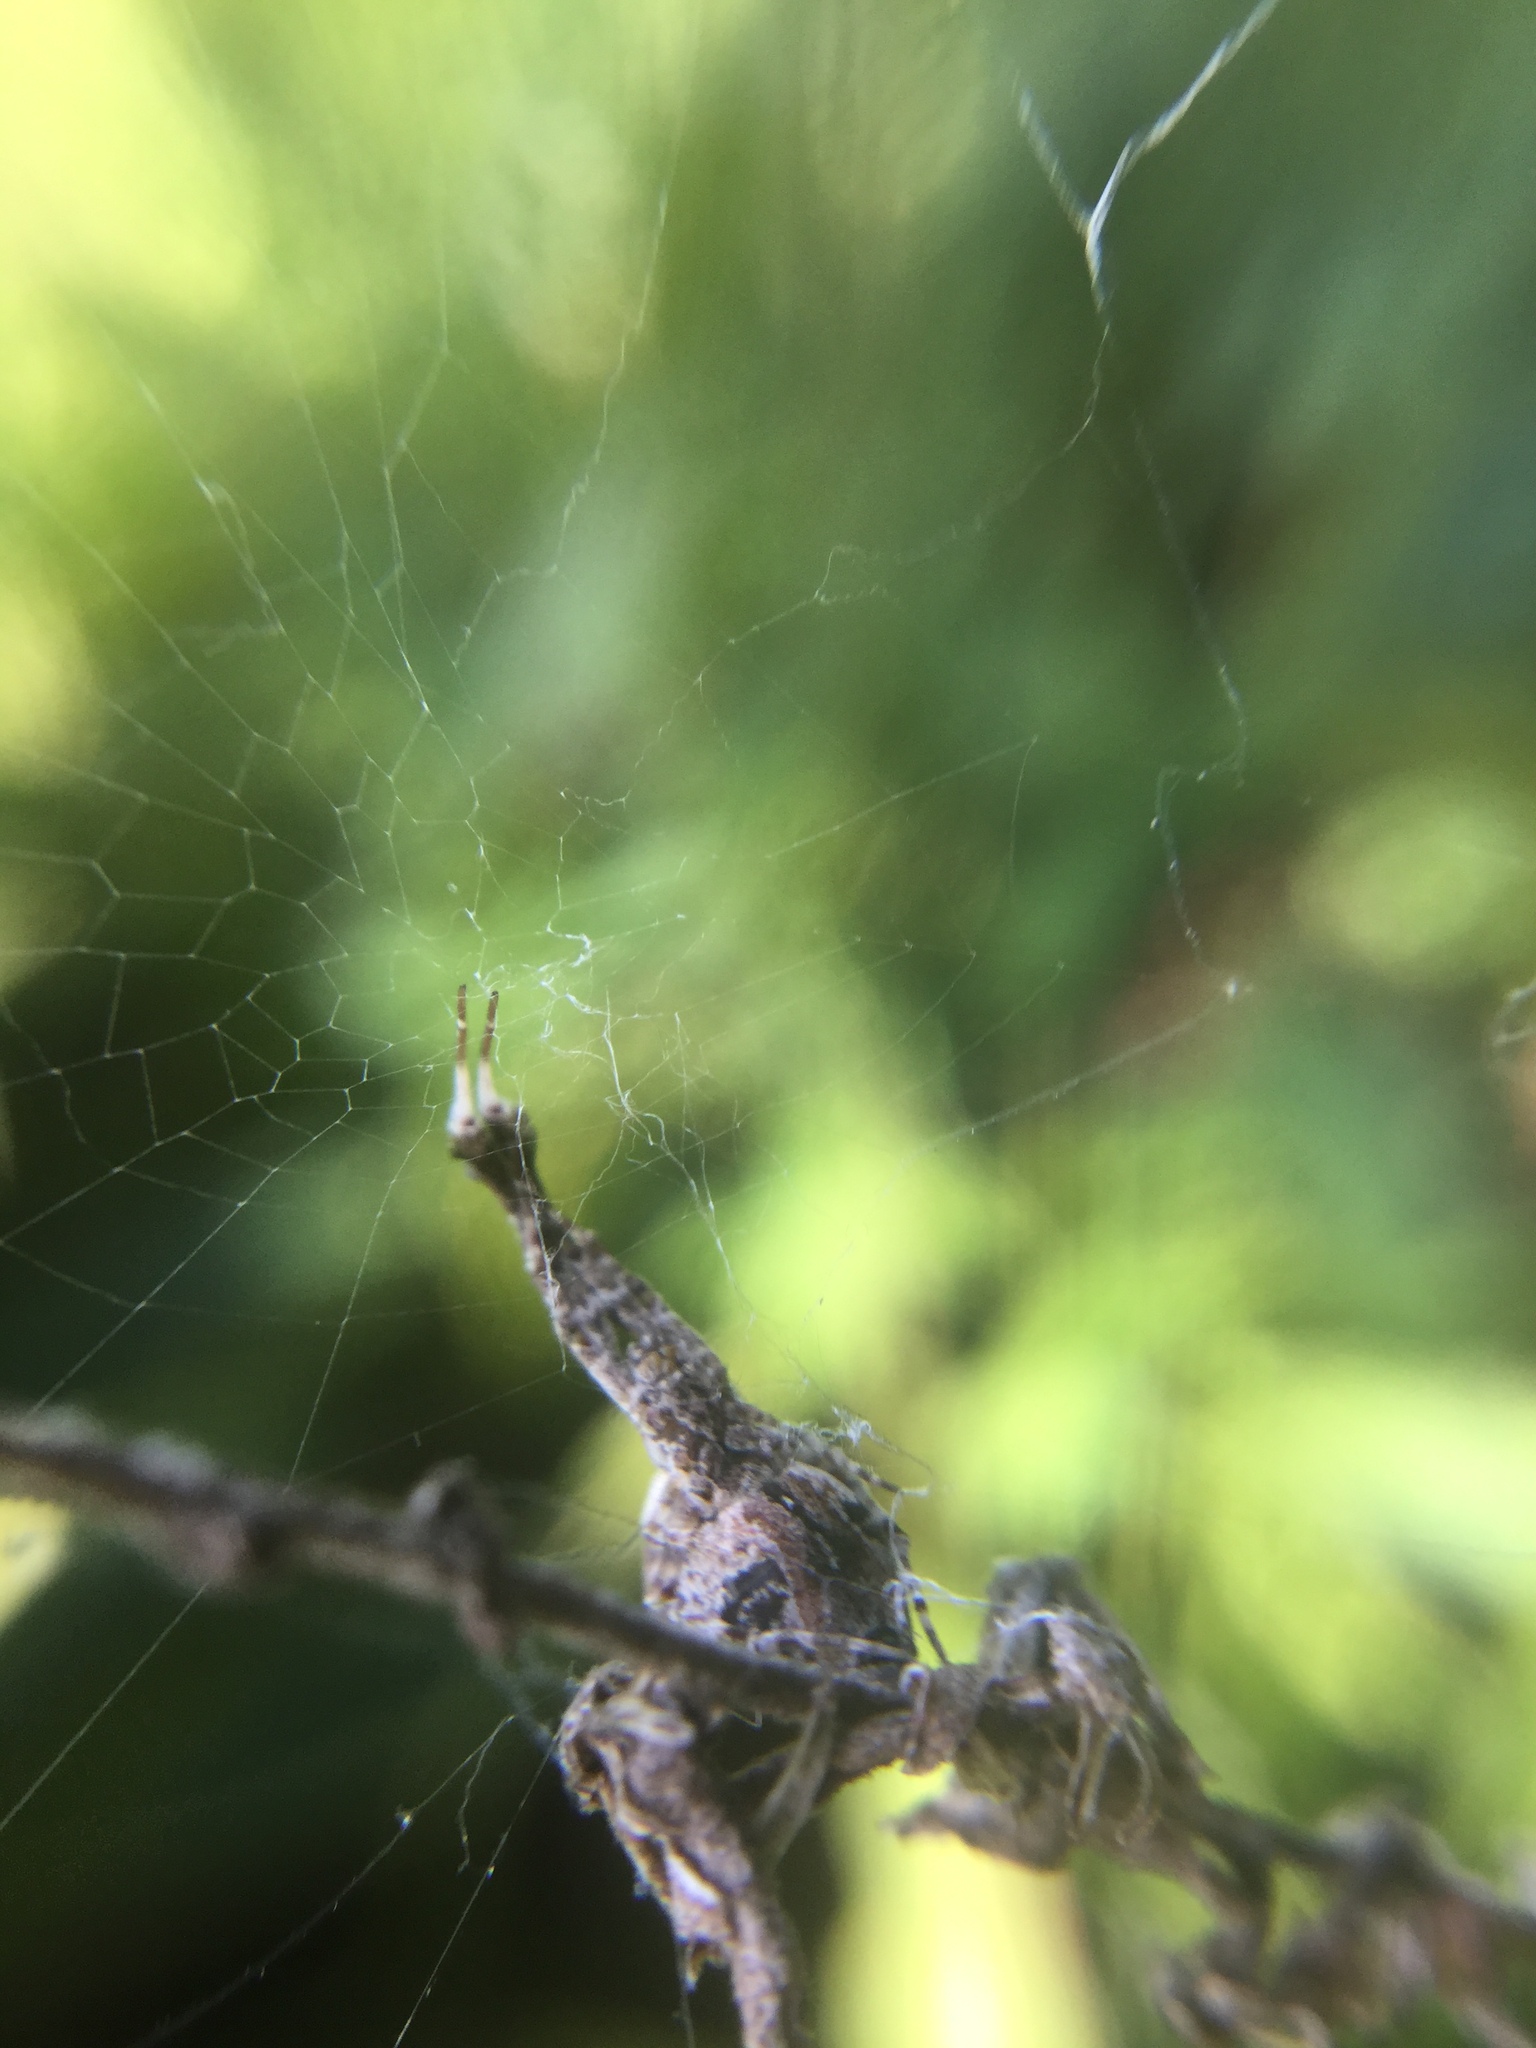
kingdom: Animalia
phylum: Arthropoda
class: Arachnida
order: Araneae
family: Uloboridae
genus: Uloborus
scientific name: Uloborus glomosus
